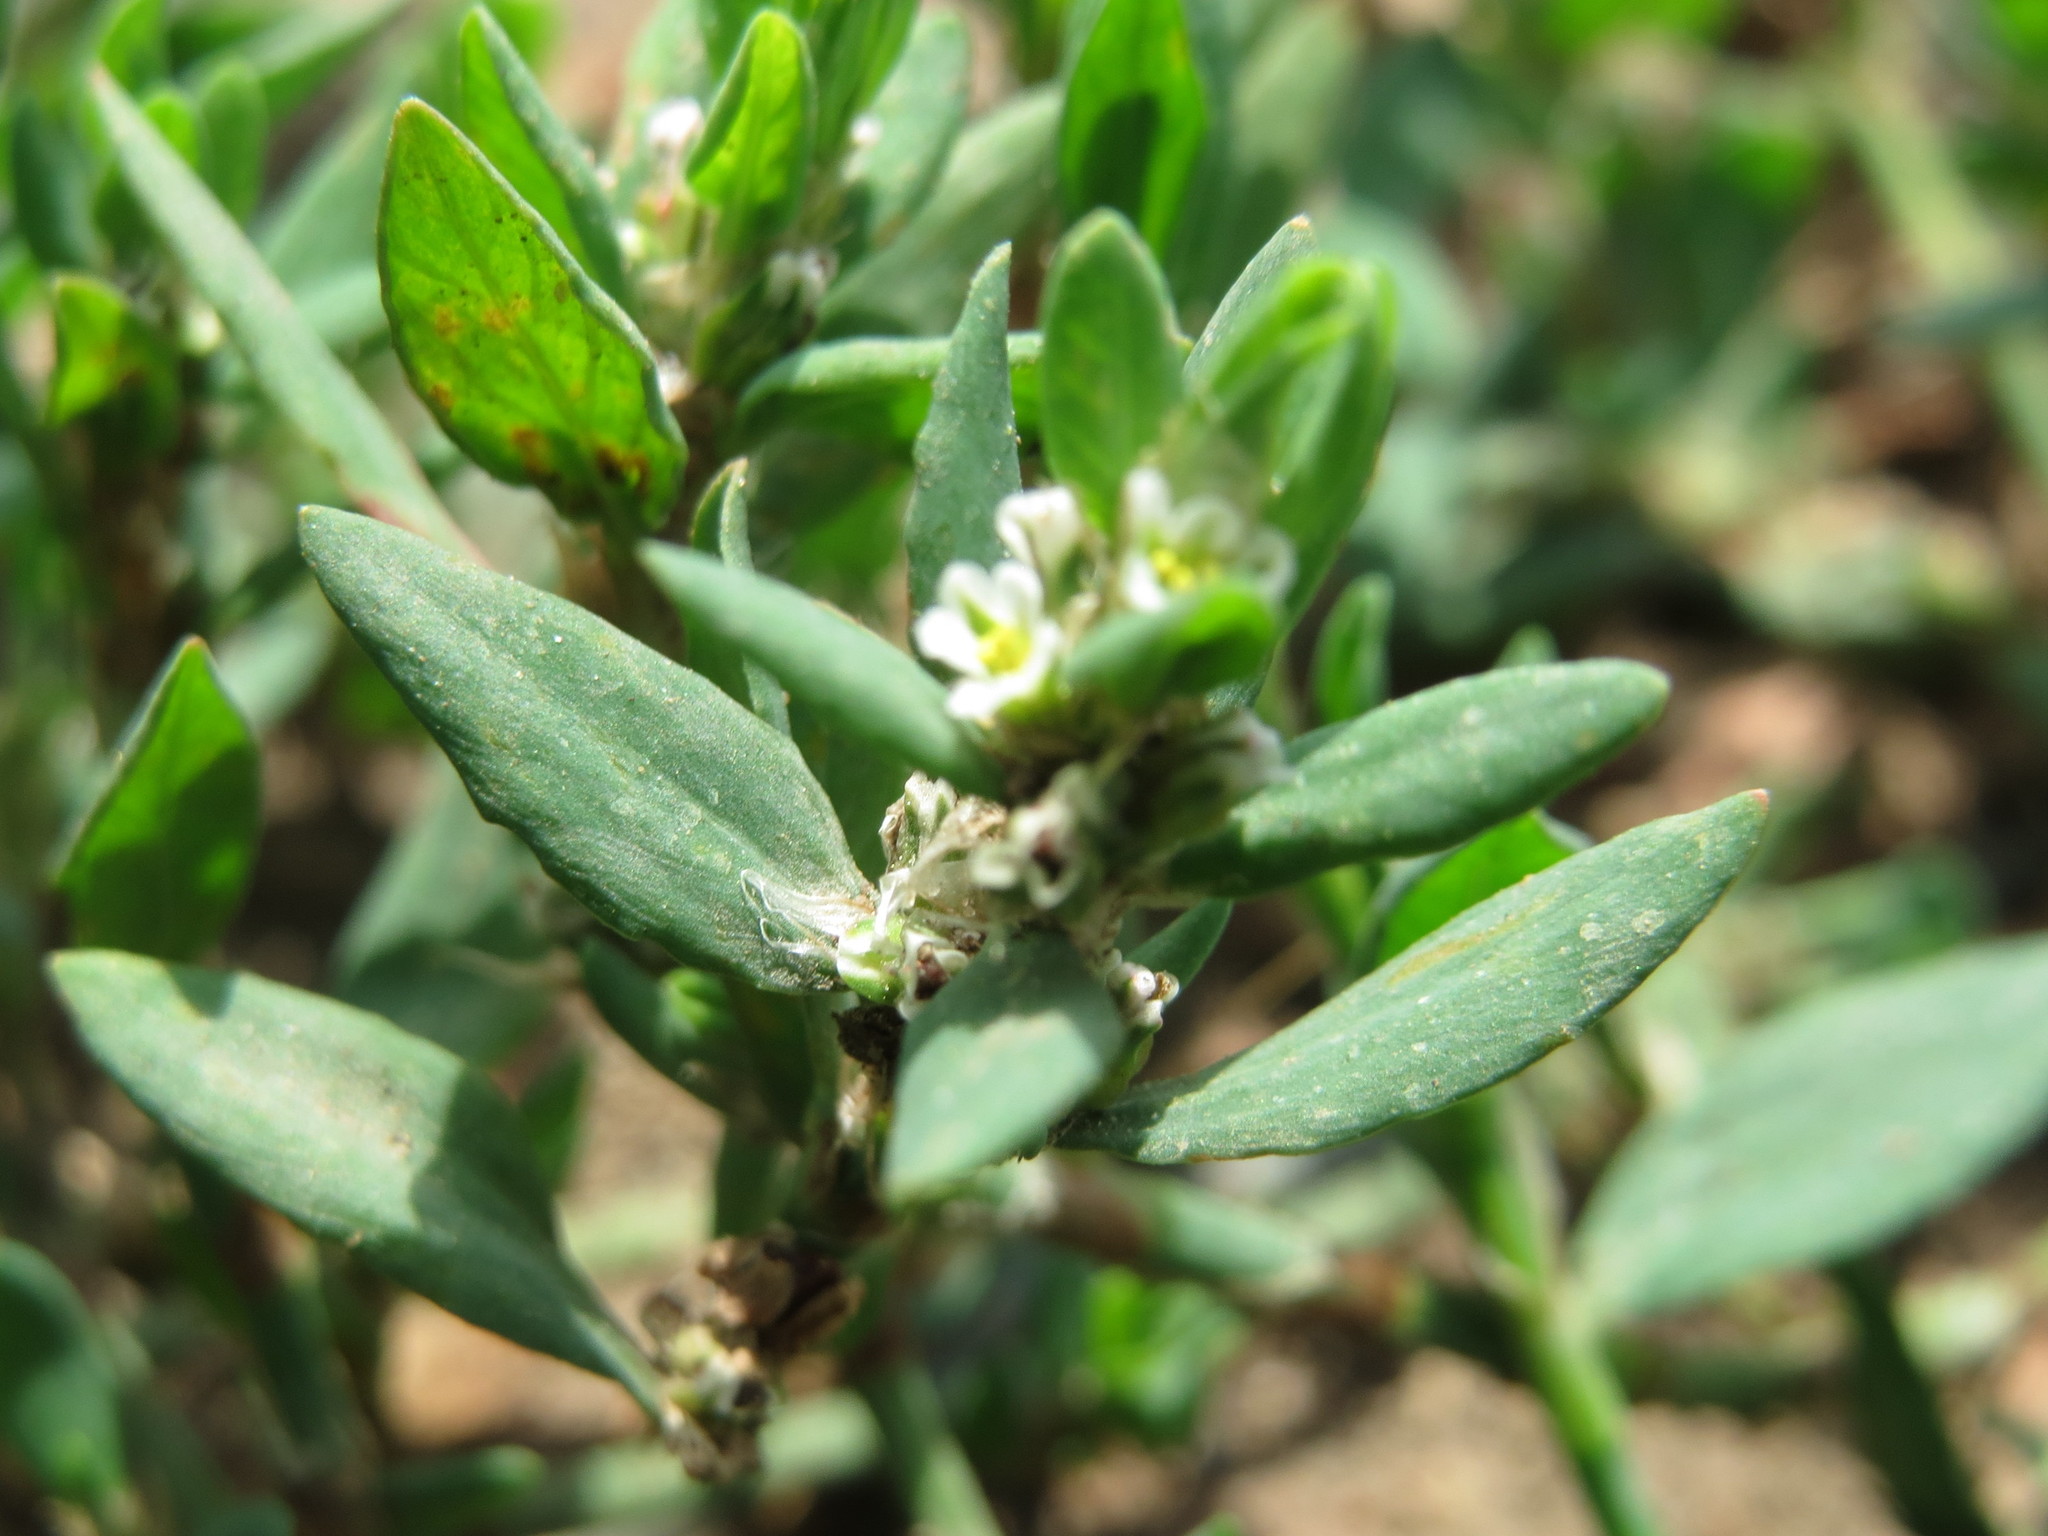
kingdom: Plantae
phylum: Tracheophyta
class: Magnoliopsida
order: Caryophyllales
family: Polygonaceae
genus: Polygonum
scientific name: Polygonum aviculare
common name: Prostrate knotweed
